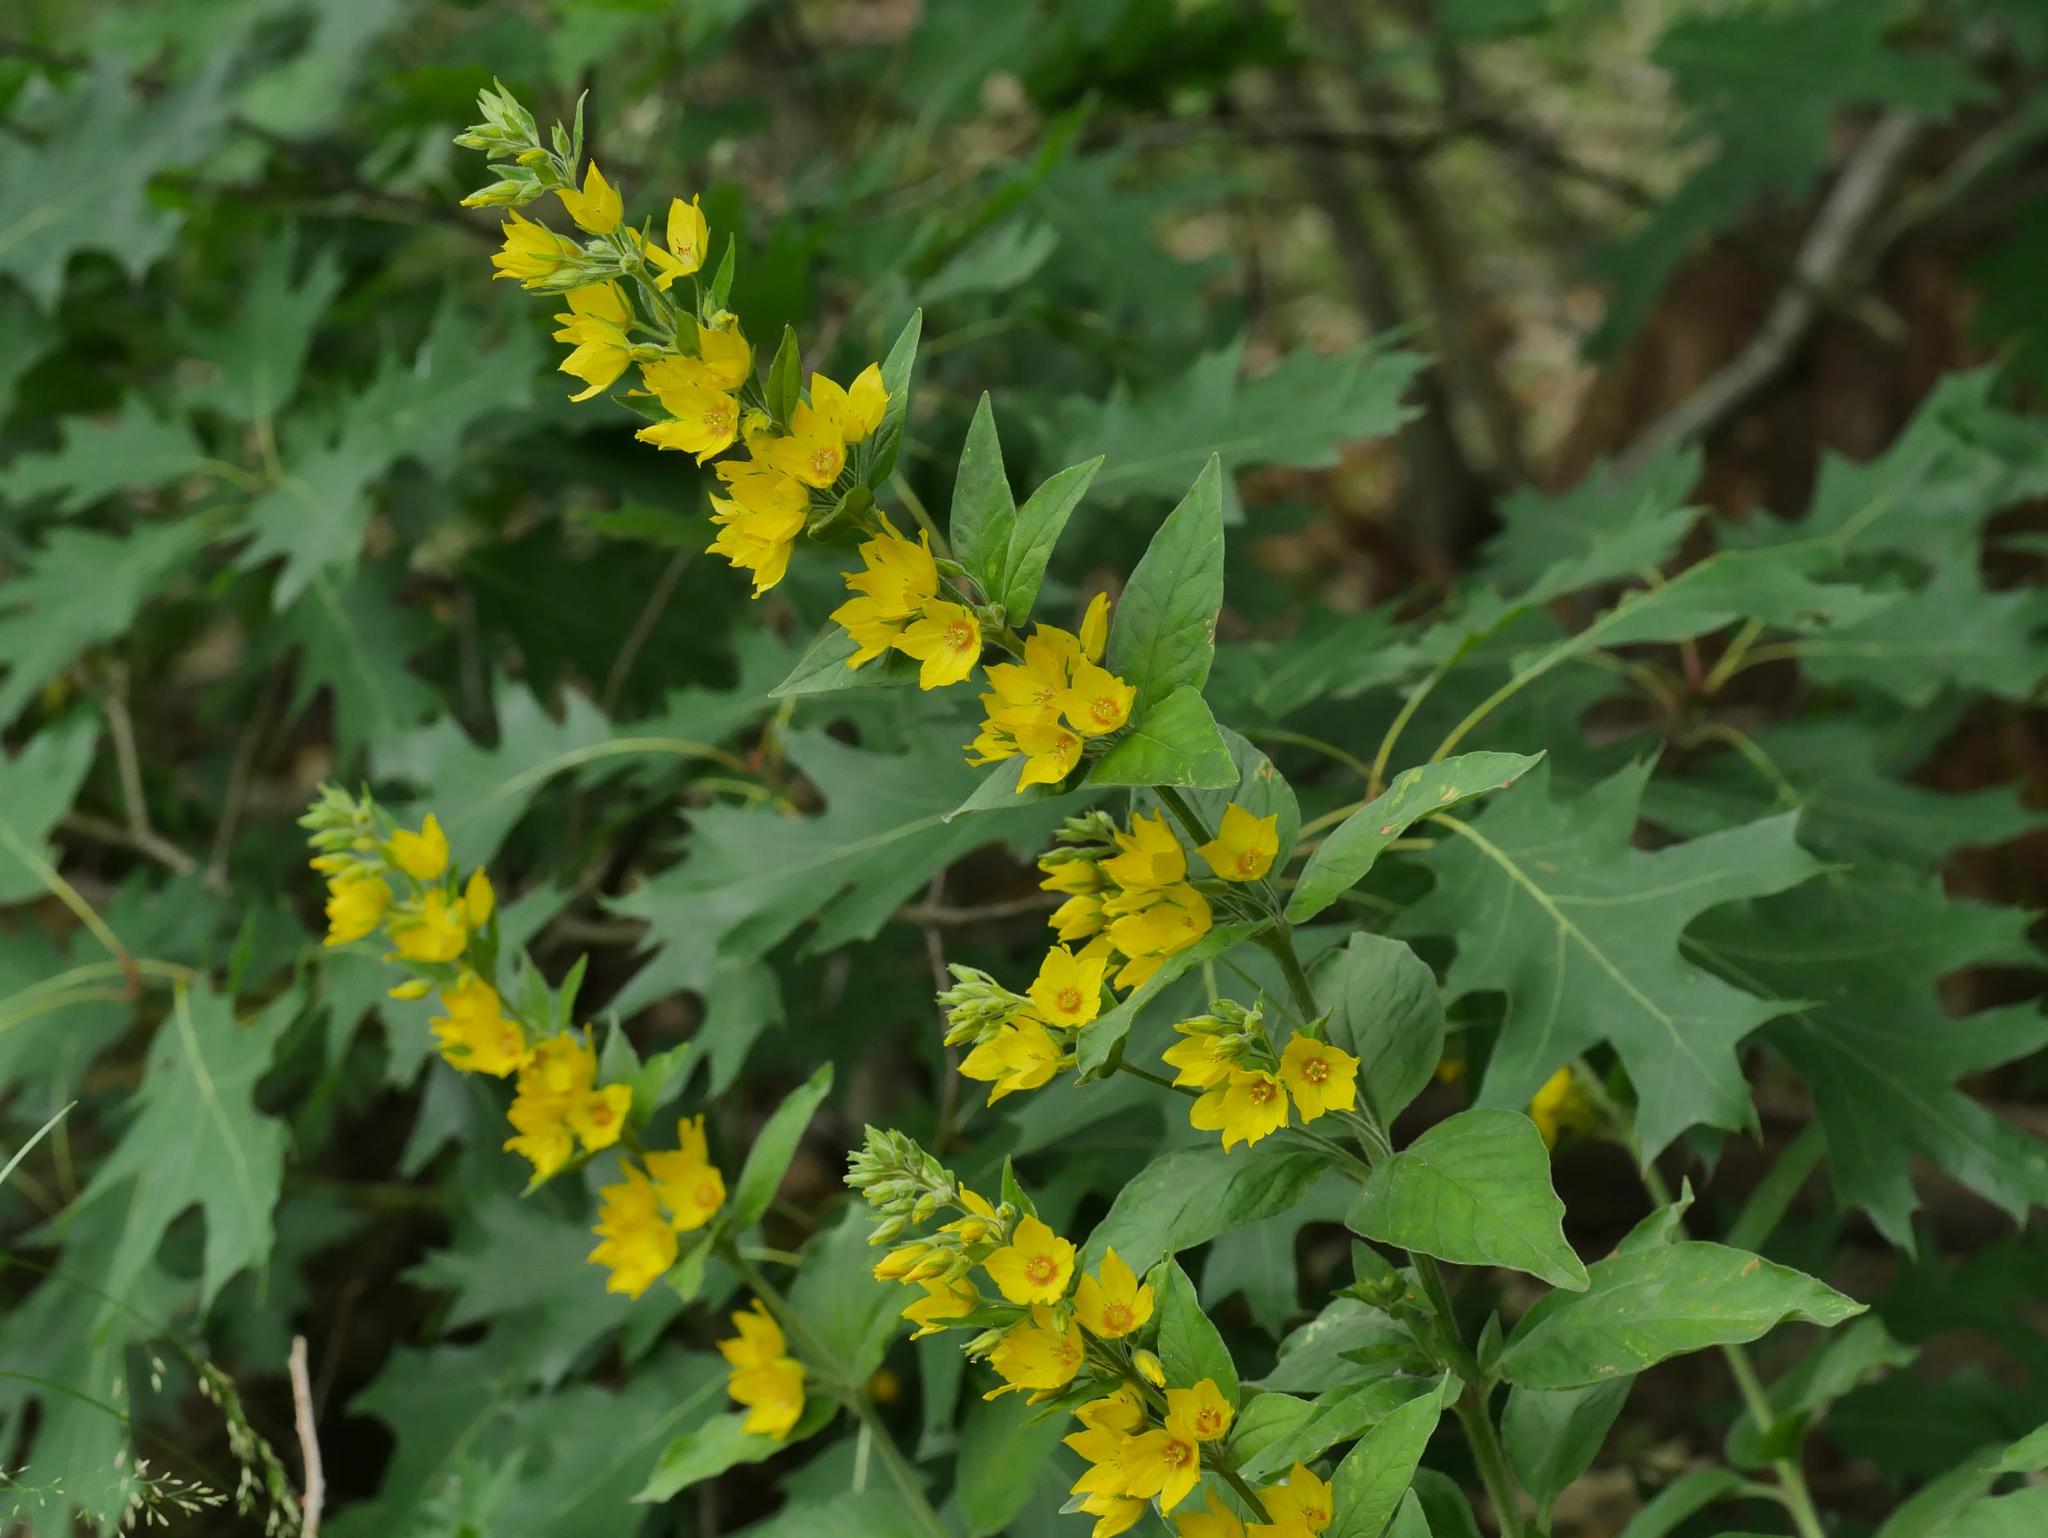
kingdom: Plantae
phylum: Tracheophyta
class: Magnoliopsida
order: Ericales
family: Primulaceae
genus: Lysimachia
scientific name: Lysimachia punctata
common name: Dotted loosestrife
